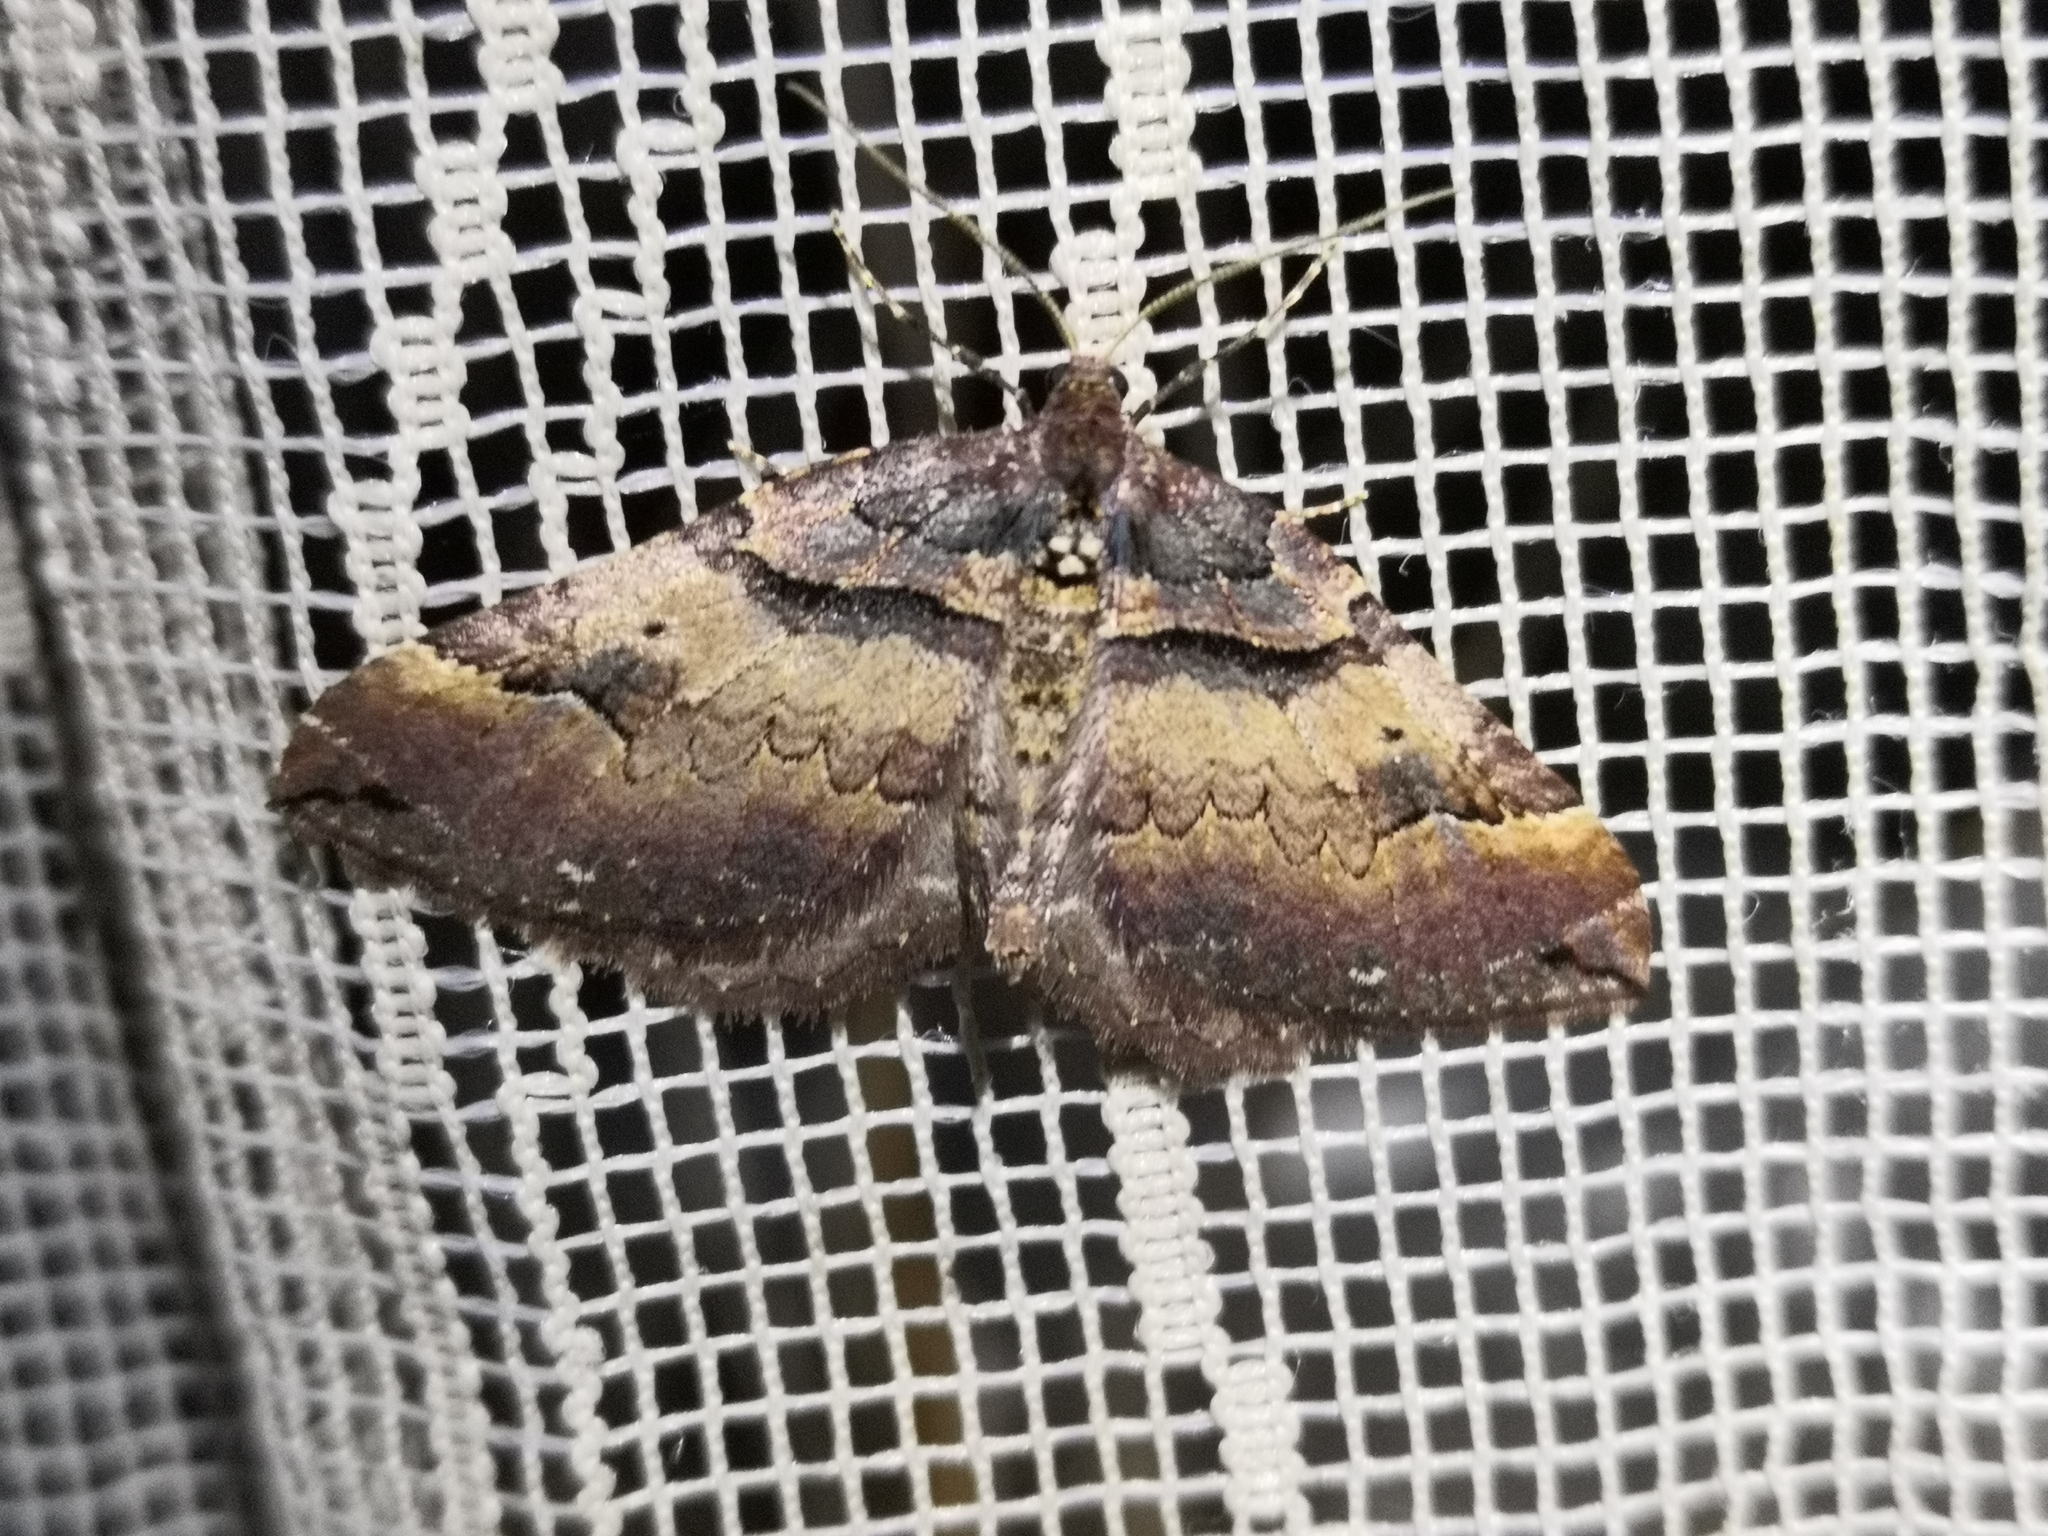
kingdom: Animalia
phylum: Arthropoda
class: Insecta
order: Lepidoptera
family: Geometridae
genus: Anticlea
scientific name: Anticlea badiata
